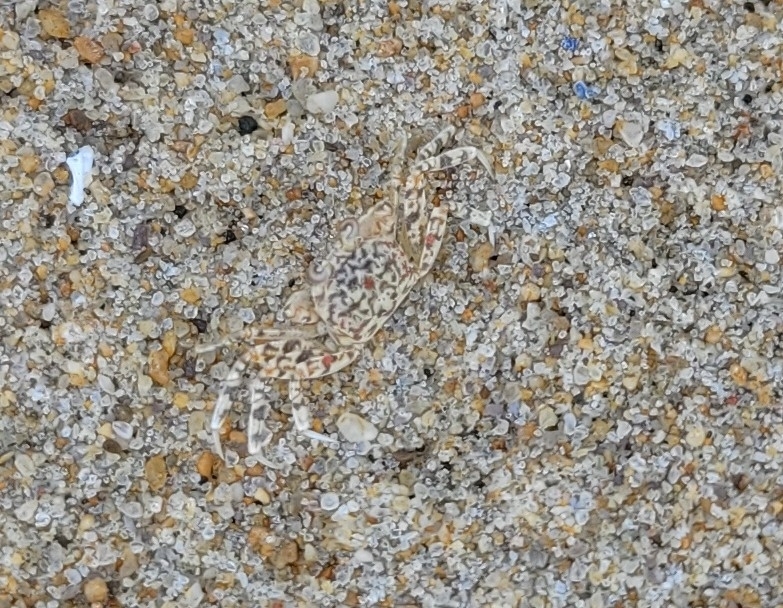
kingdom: Animalia
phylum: Arthropoda
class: Malacostraca
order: Decapoda
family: Ocypodidae
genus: Ocypode
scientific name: Ocypode quadrata
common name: Ghost crab
